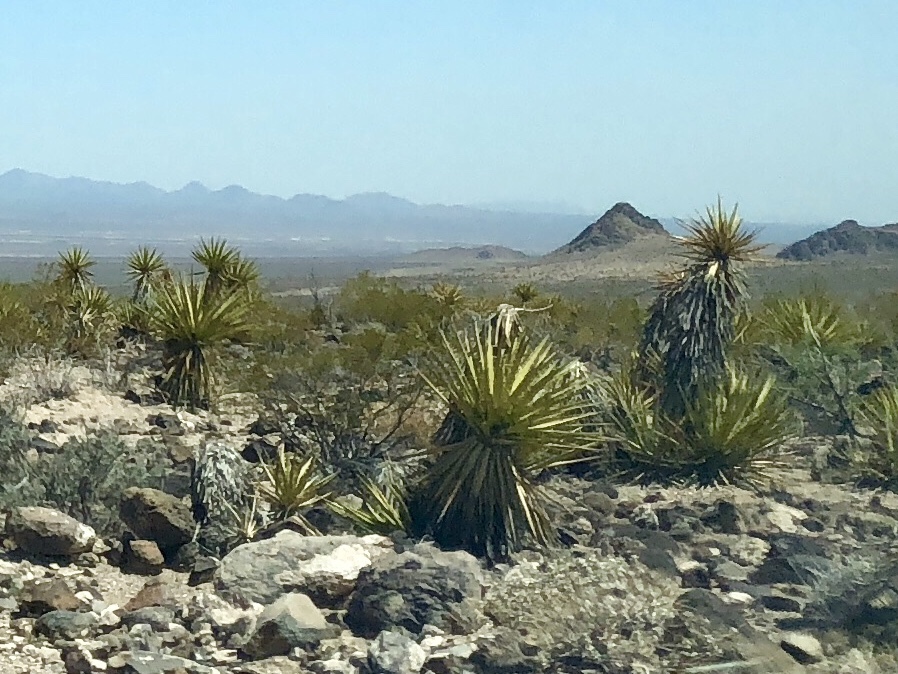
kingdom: Plantae
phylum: Tracheophyta
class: Liliopsida
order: Asparagales
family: Asparagaceae
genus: Yucca
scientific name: Yucca schidigera
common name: Mojave yucca
